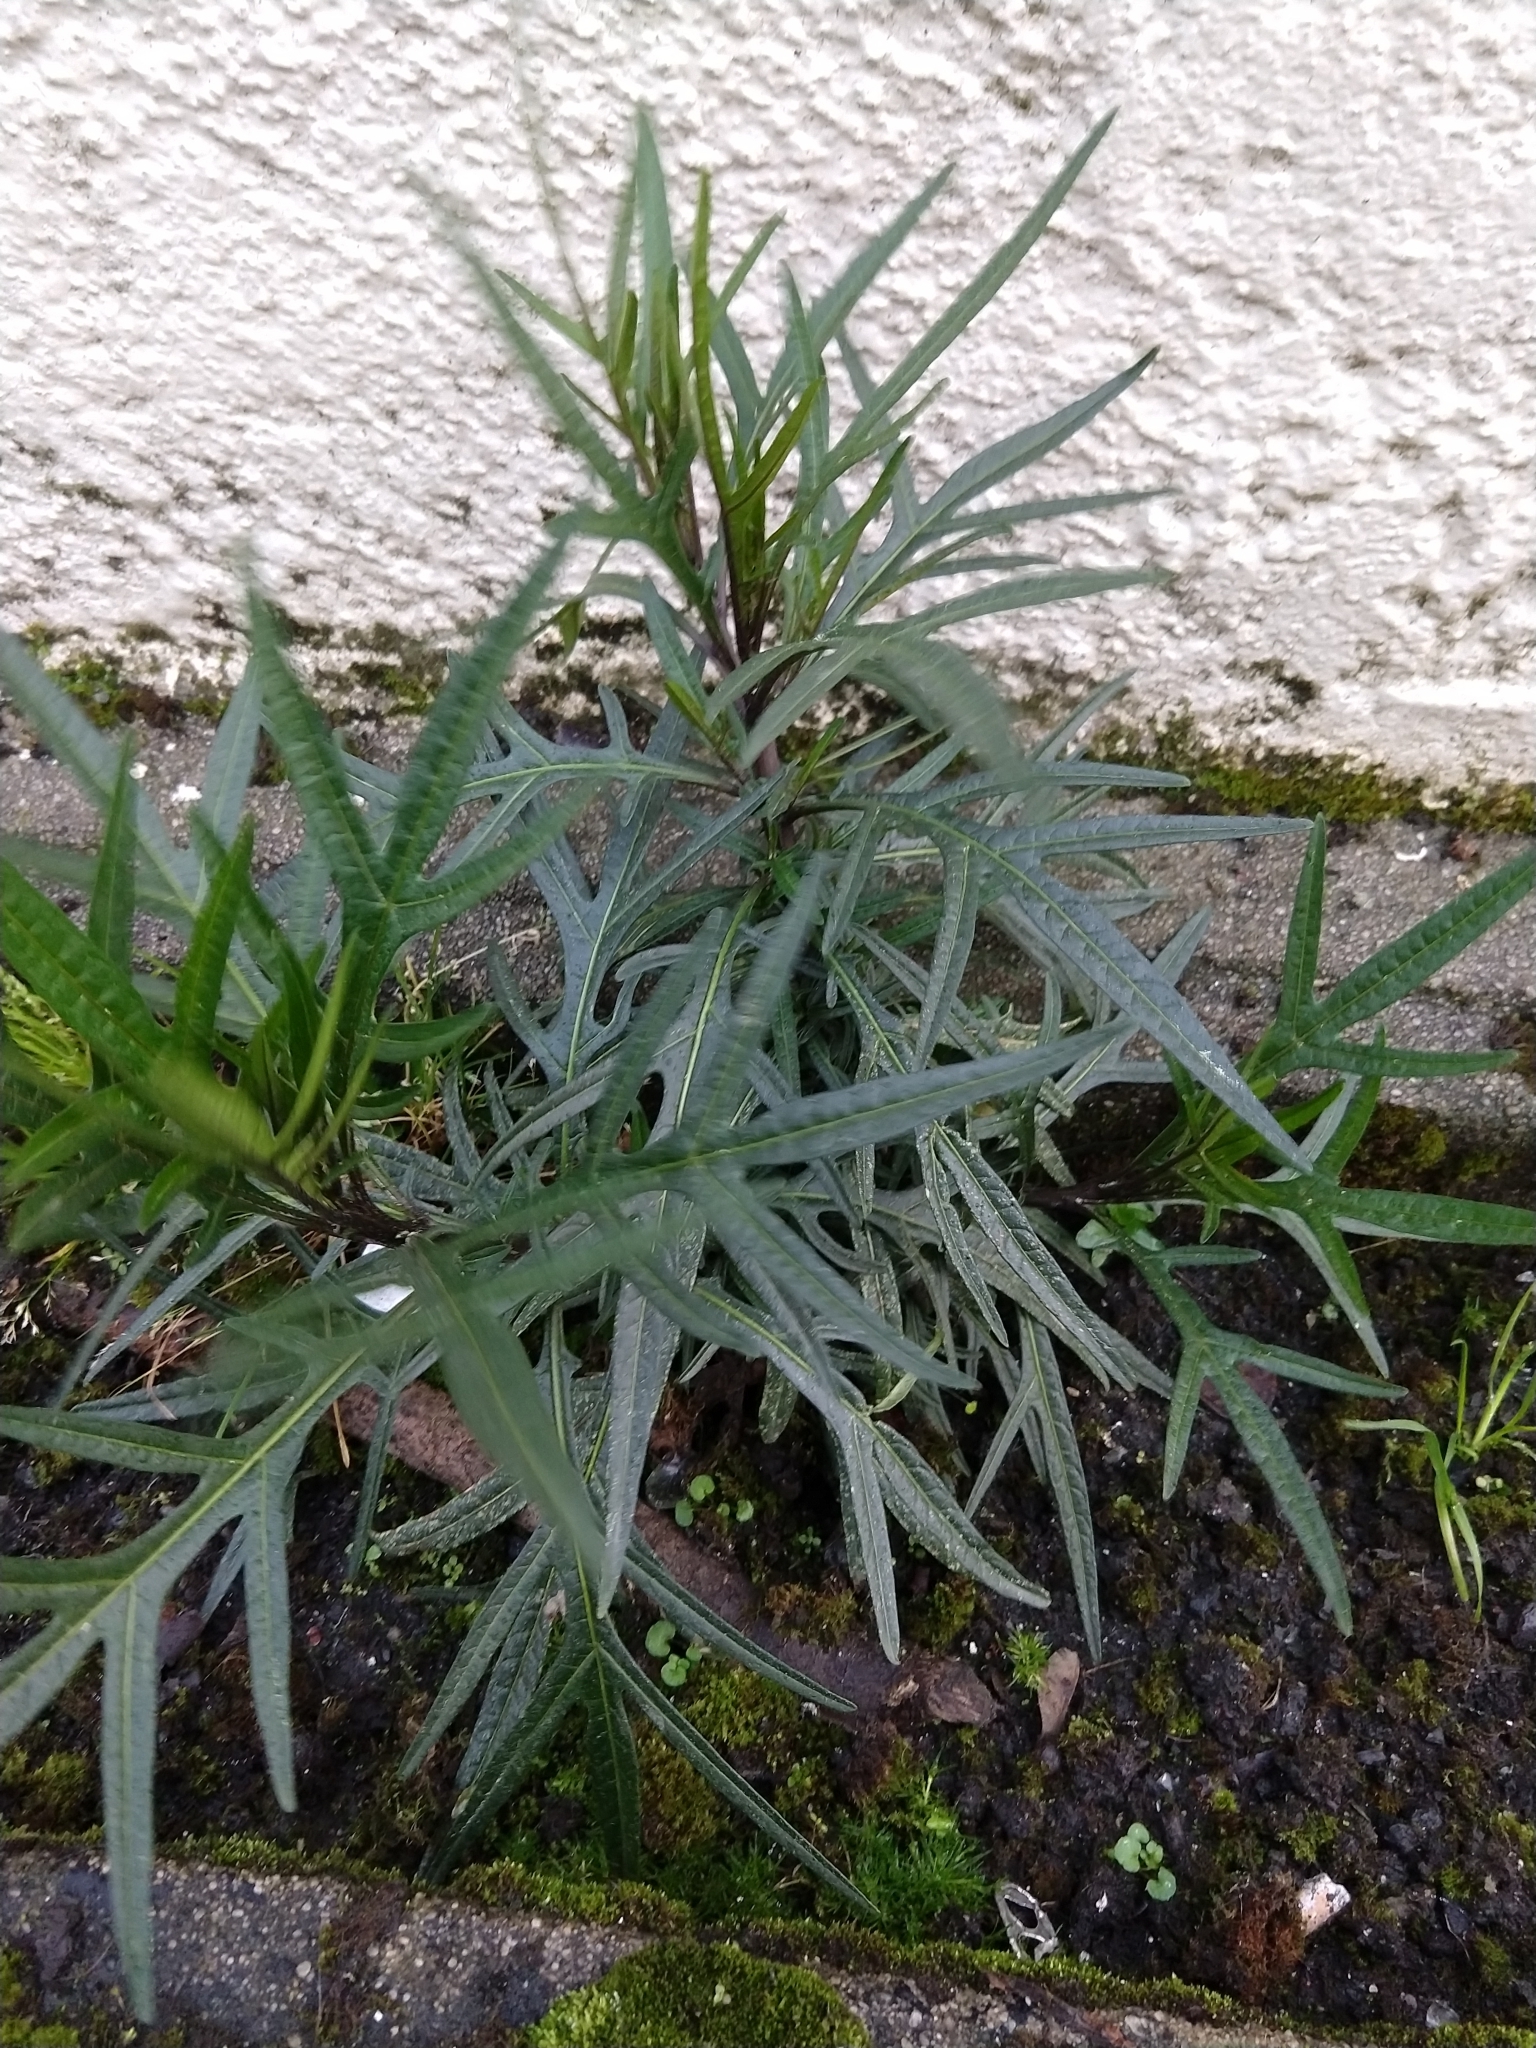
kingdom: Plantae
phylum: Tracheophyta
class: Magnoliopsida
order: Solanales
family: Solanaceae
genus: Solanum
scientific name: Solanum
